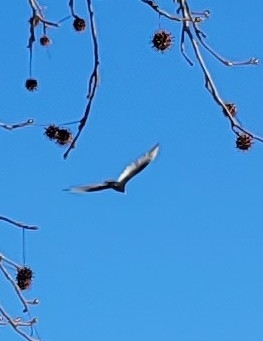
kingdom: Animalia
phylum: Chordata
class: Aves
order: Accipitriformes
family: Cathartidae
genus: Cathartes
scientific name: Cathartes aura
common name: Turkey vulture
